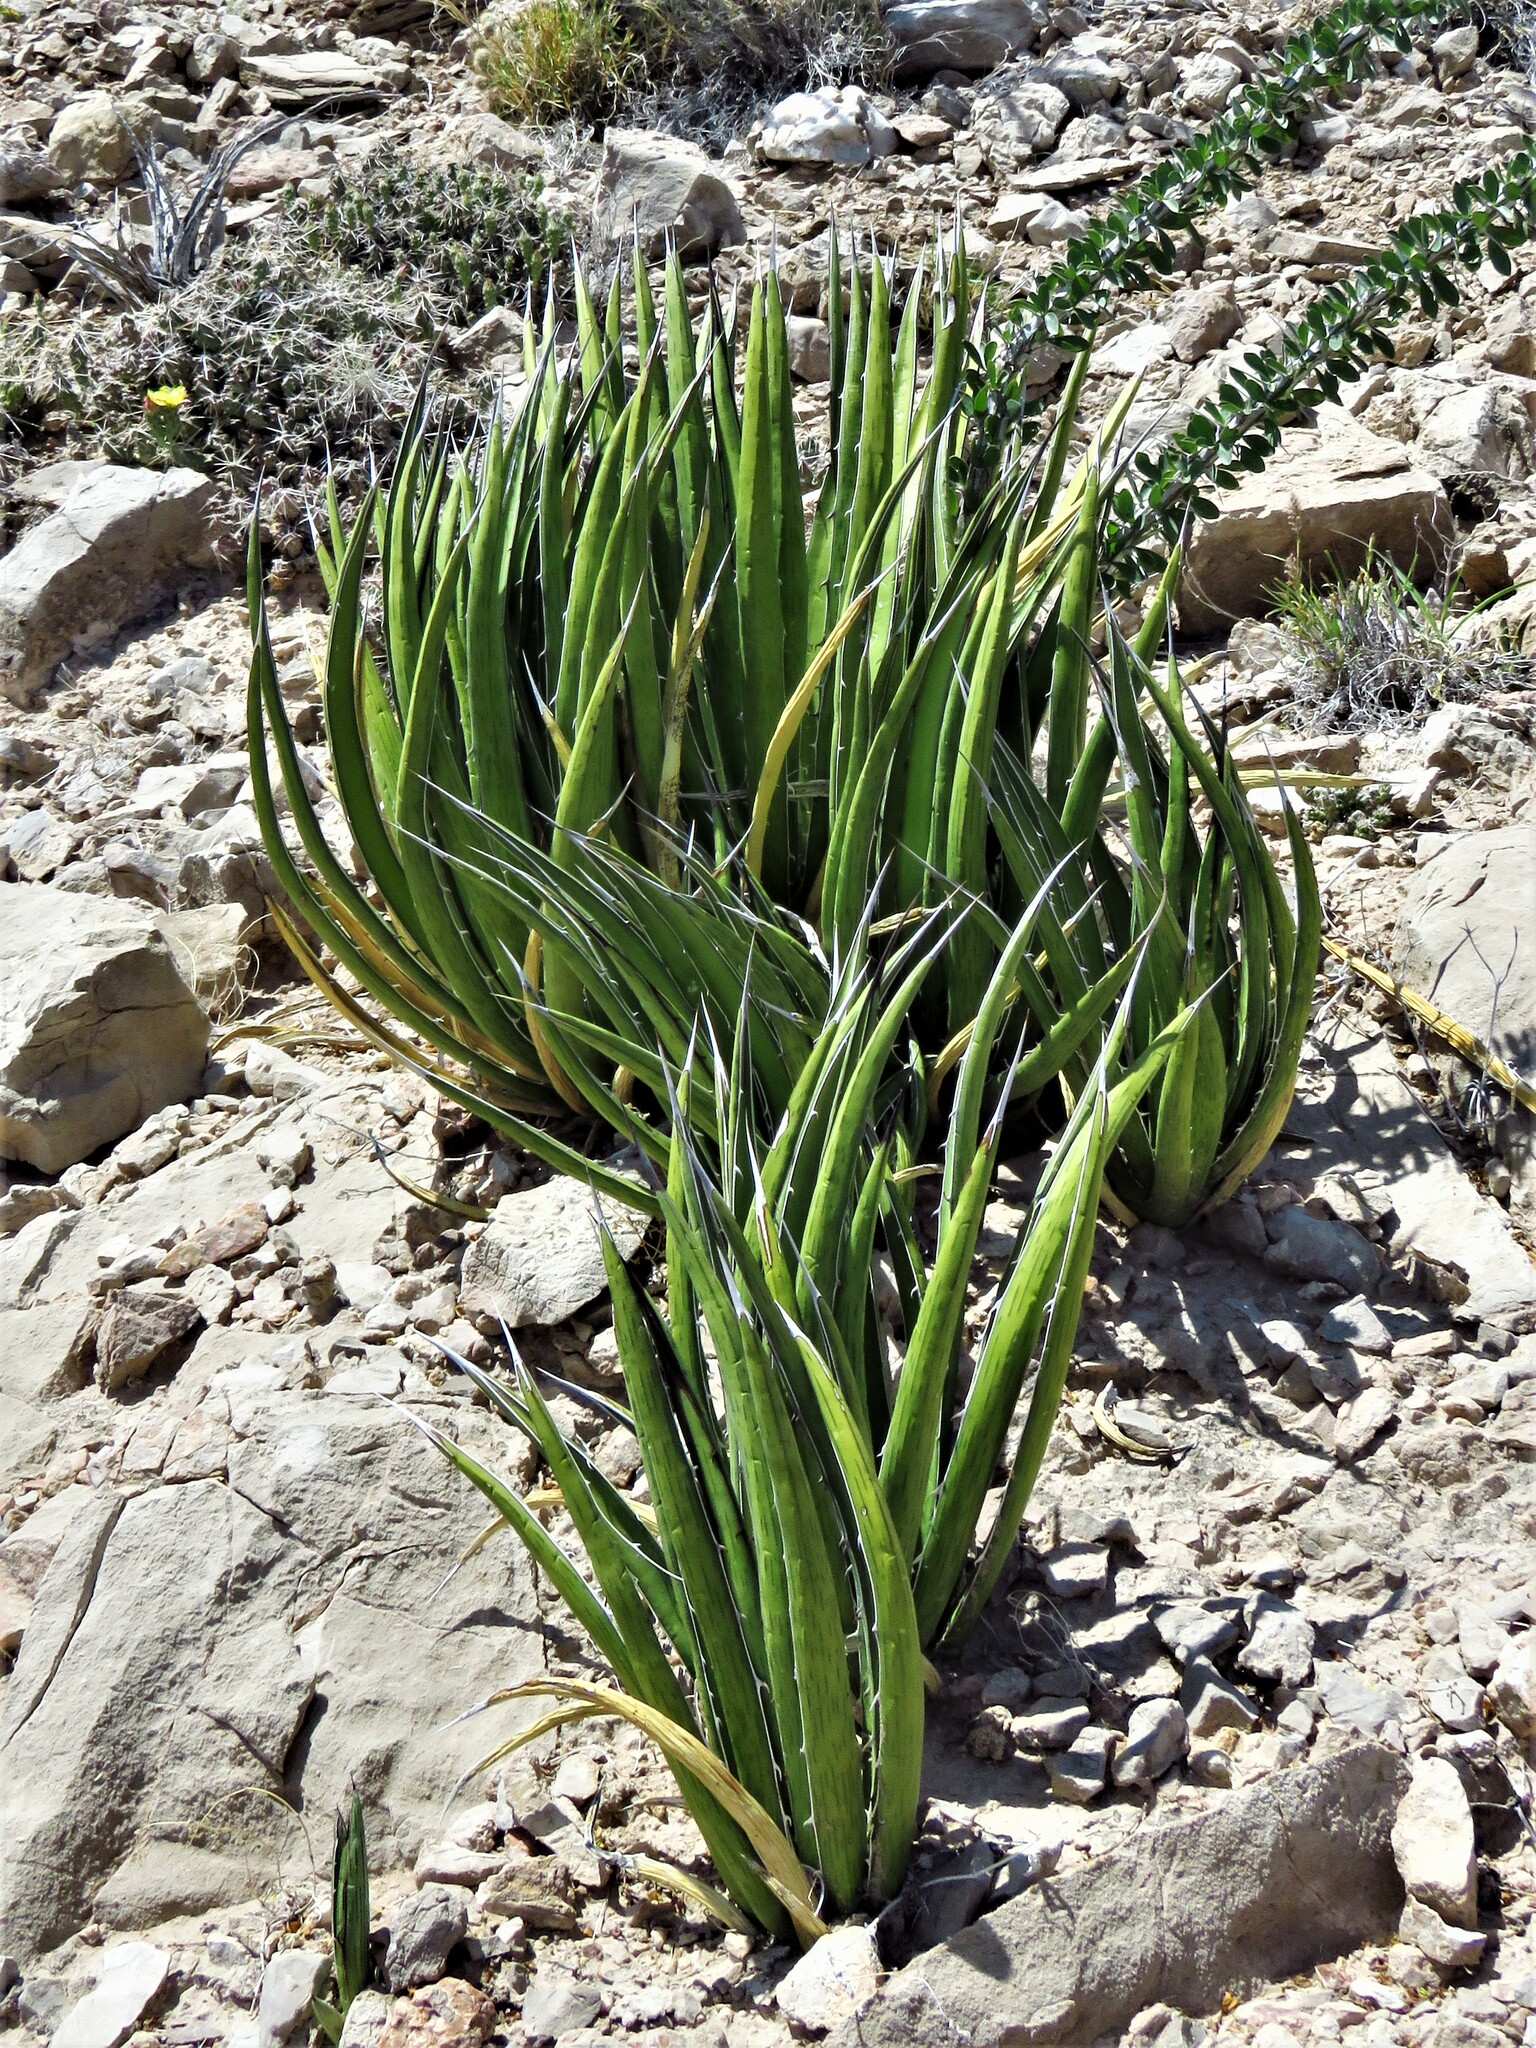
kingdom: Plantae
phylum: Tracheophyta
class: Liliopsida
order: Asparagales
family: Asparagaceae
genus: Agave
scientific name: Agave lechuguilla
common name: Lecheguilla agave
